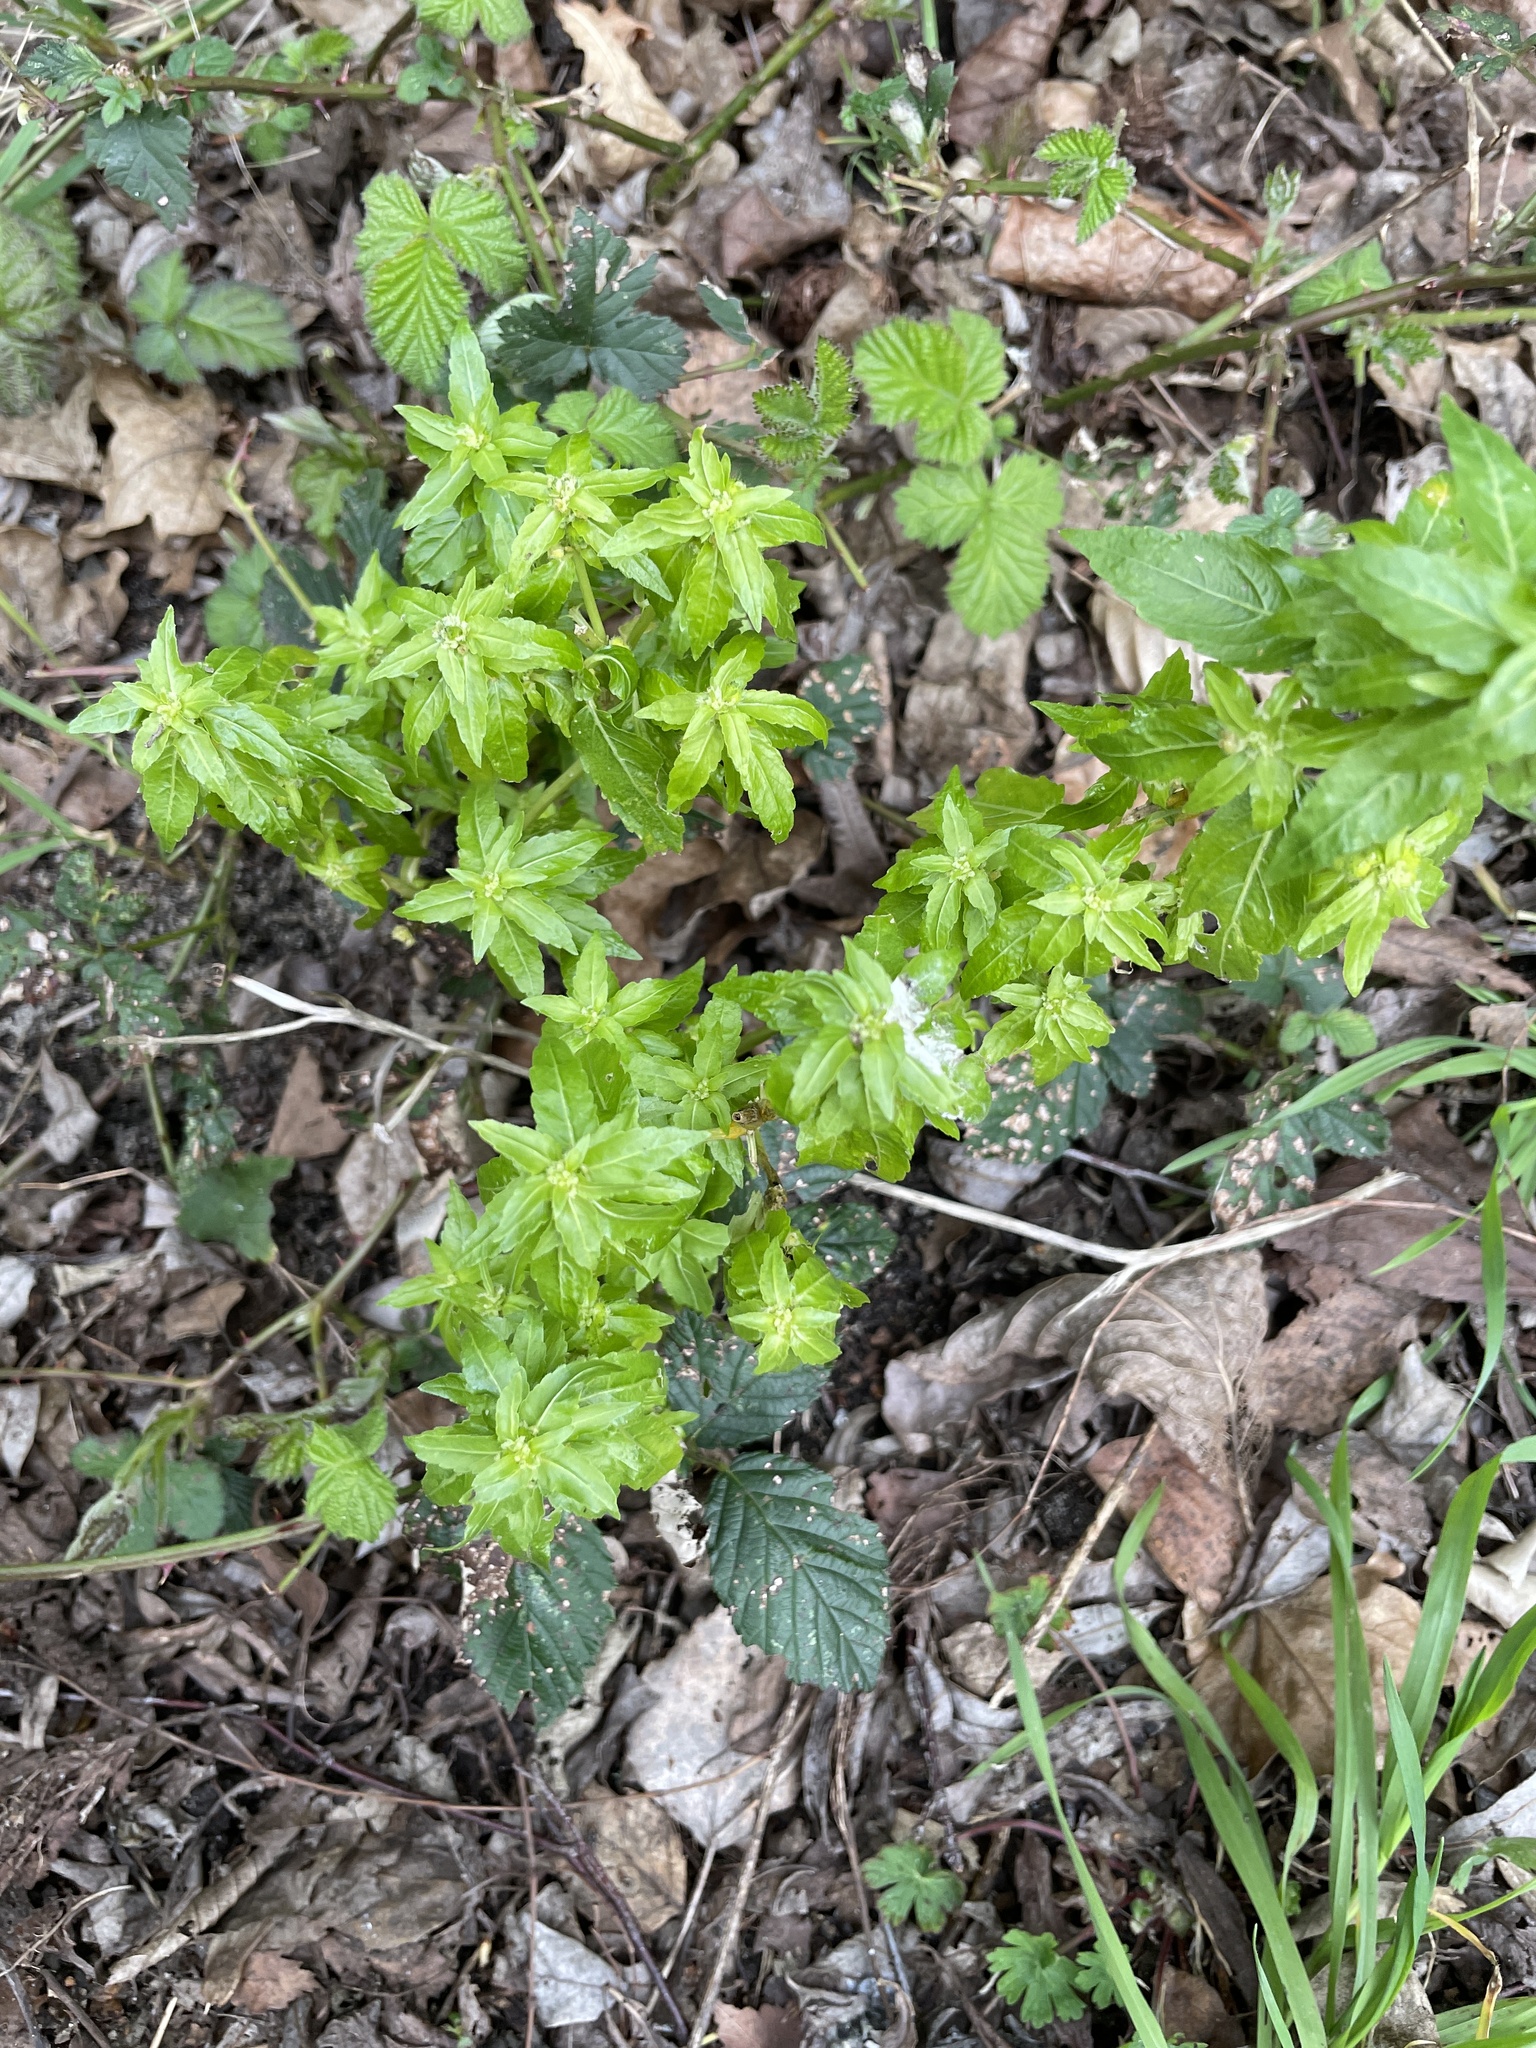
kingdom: Plantae
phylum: Tracheophyta
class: Magnoliopsida
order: Malpighiales
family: Euphorbiaceae
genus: Mercurialis
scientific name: Mercurialis annua
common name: Annual mercury
